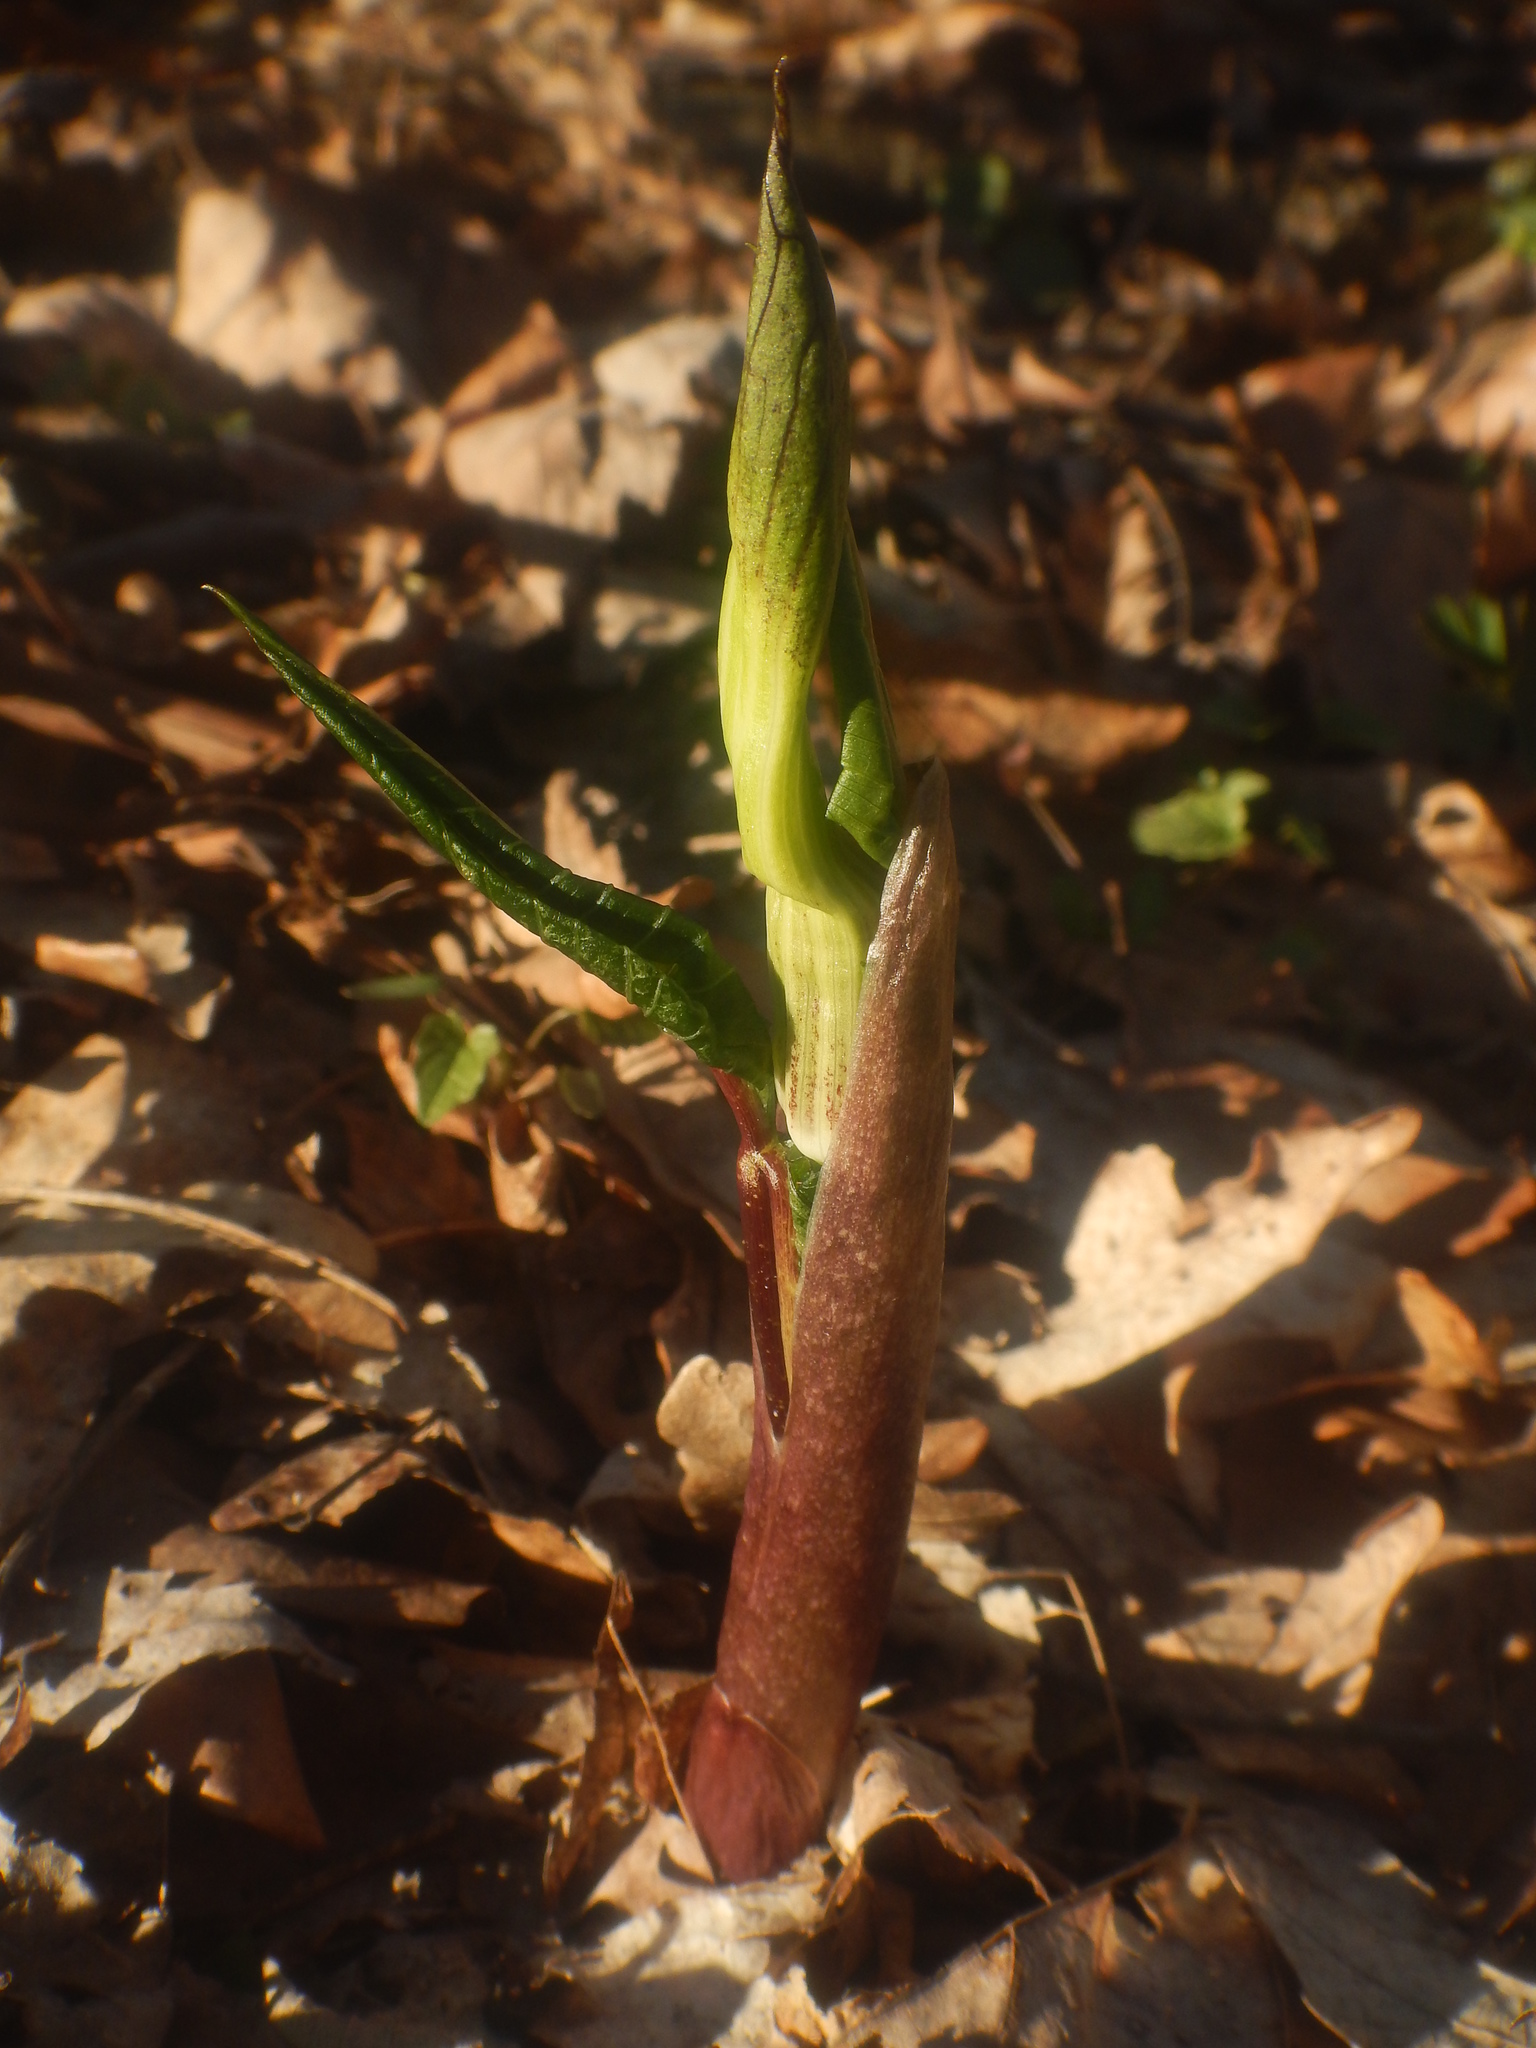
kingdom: Plantae
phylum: Tracheophyta
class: Liliopsida
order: Alismatales
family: Araceae
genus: Arisaema
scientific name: Arisaema triphyllum
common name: Jack-in-the-pulpit
